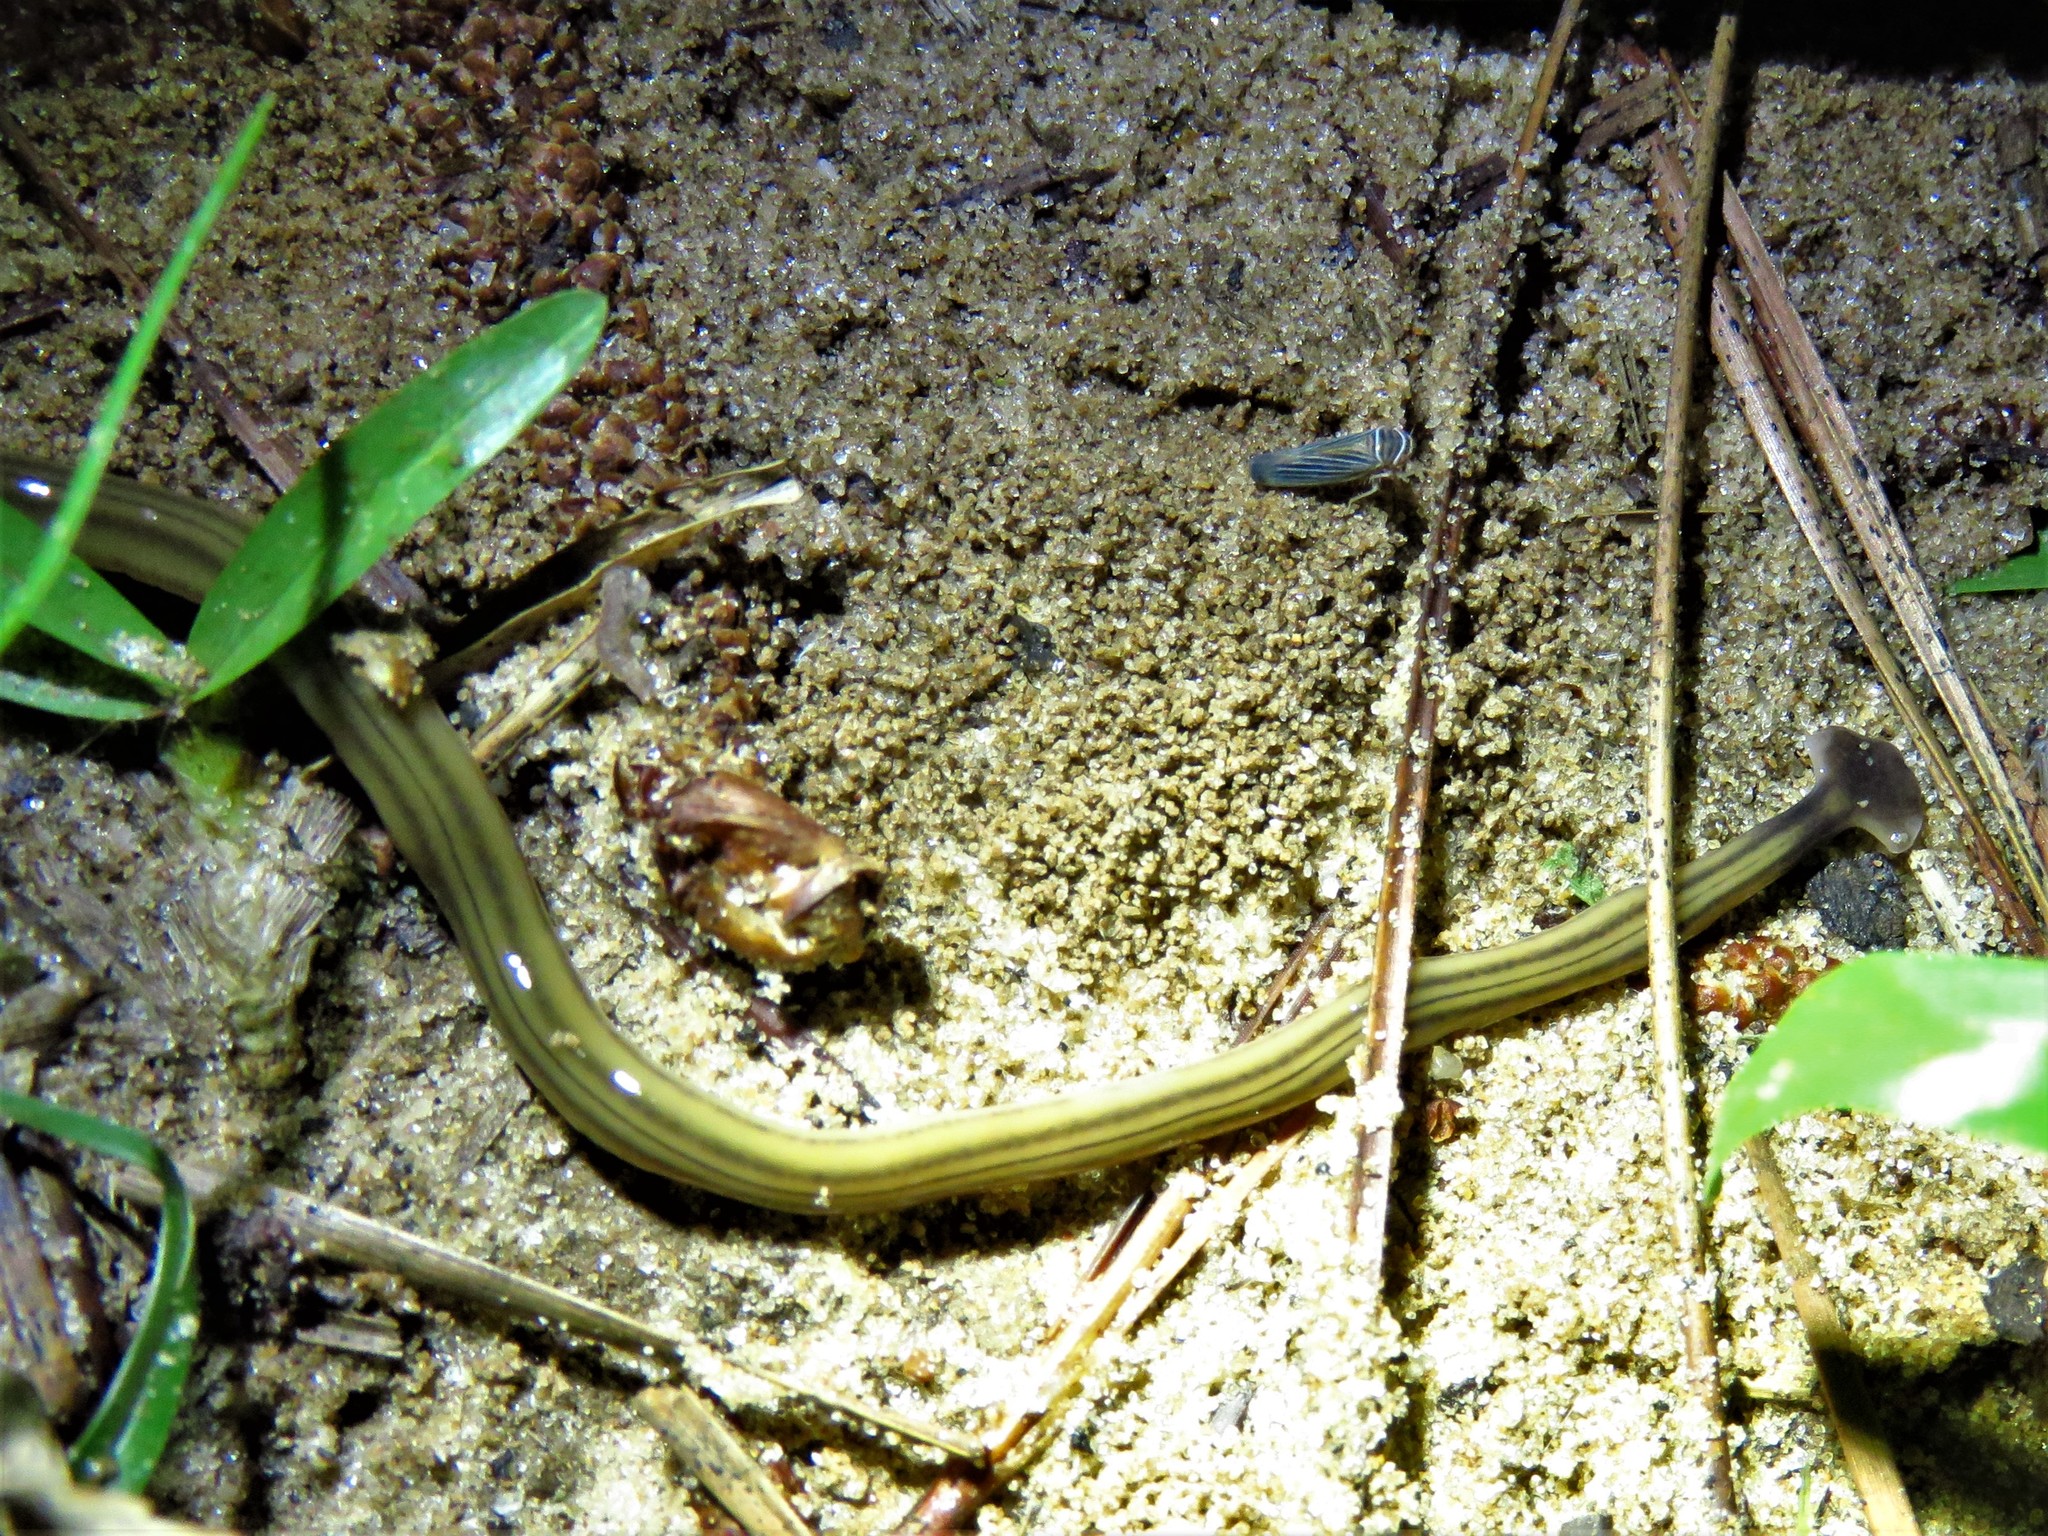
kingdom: Animalia
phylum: Platyhelminthes
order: Tricladida
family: Geoplanidae
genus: Bipalium
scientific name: Bipalium kewense
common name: Hammerhead flatworm
